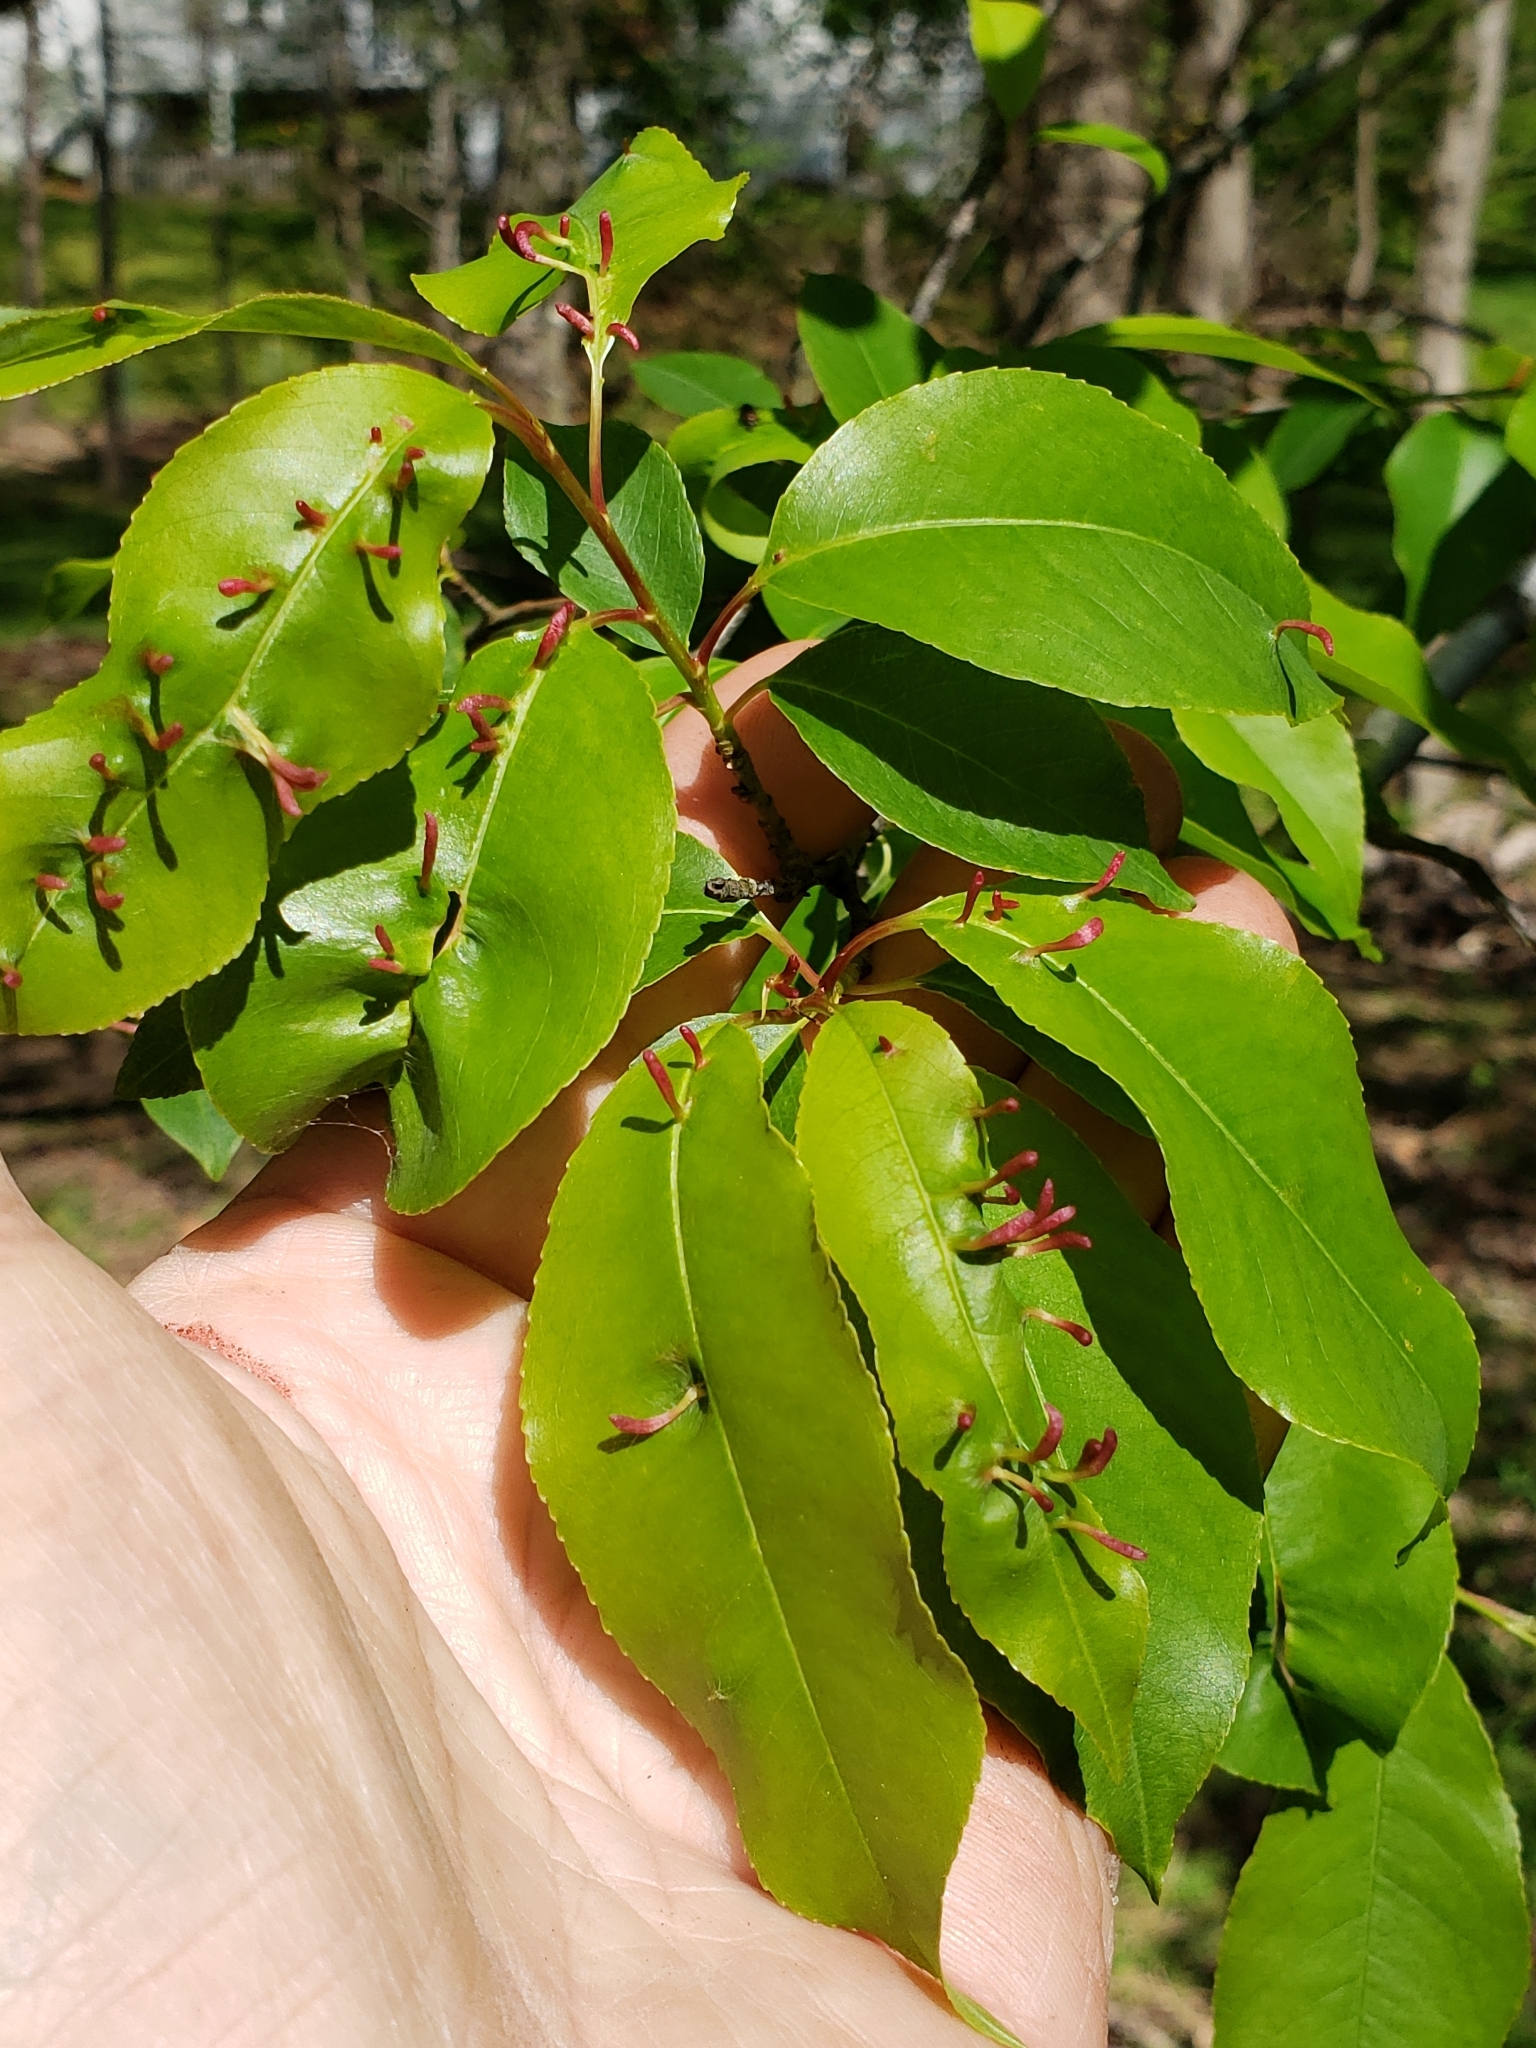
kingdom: Animalia
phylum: Arthropoda
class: Arachnida
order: Trombidiformes
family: Eriophyidae
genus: Eriophyes
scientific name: Eriophyes
